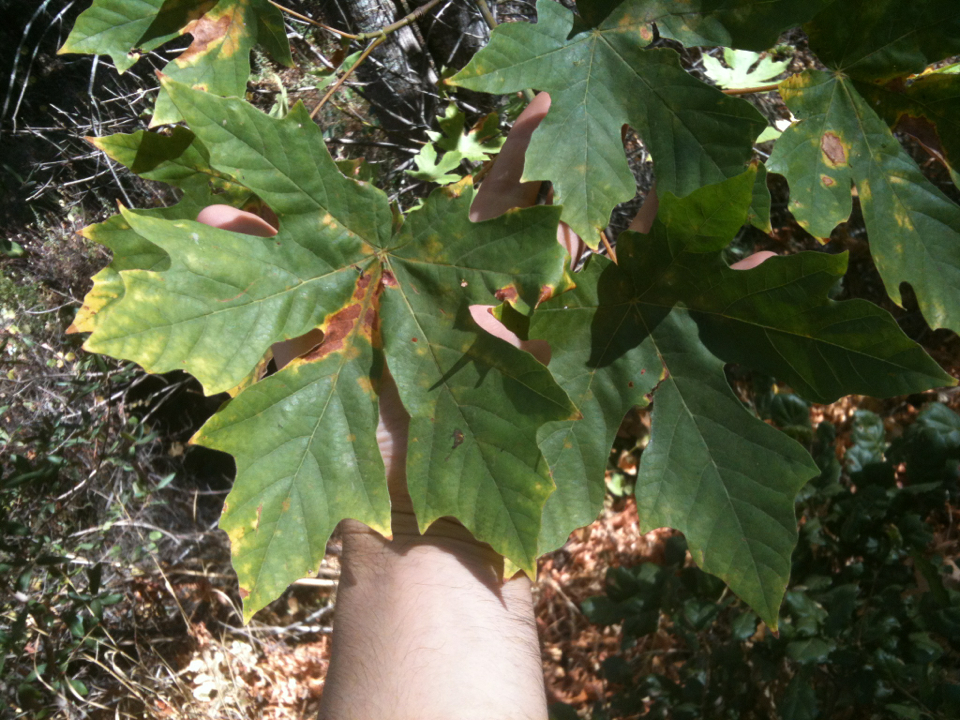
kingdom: Plantae
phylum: Tracheophyta
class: Magnoliopsida
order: Sapindales
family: Sapindaceae
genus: Acer
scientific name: Acer macrophyllum
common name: Oregon maple
